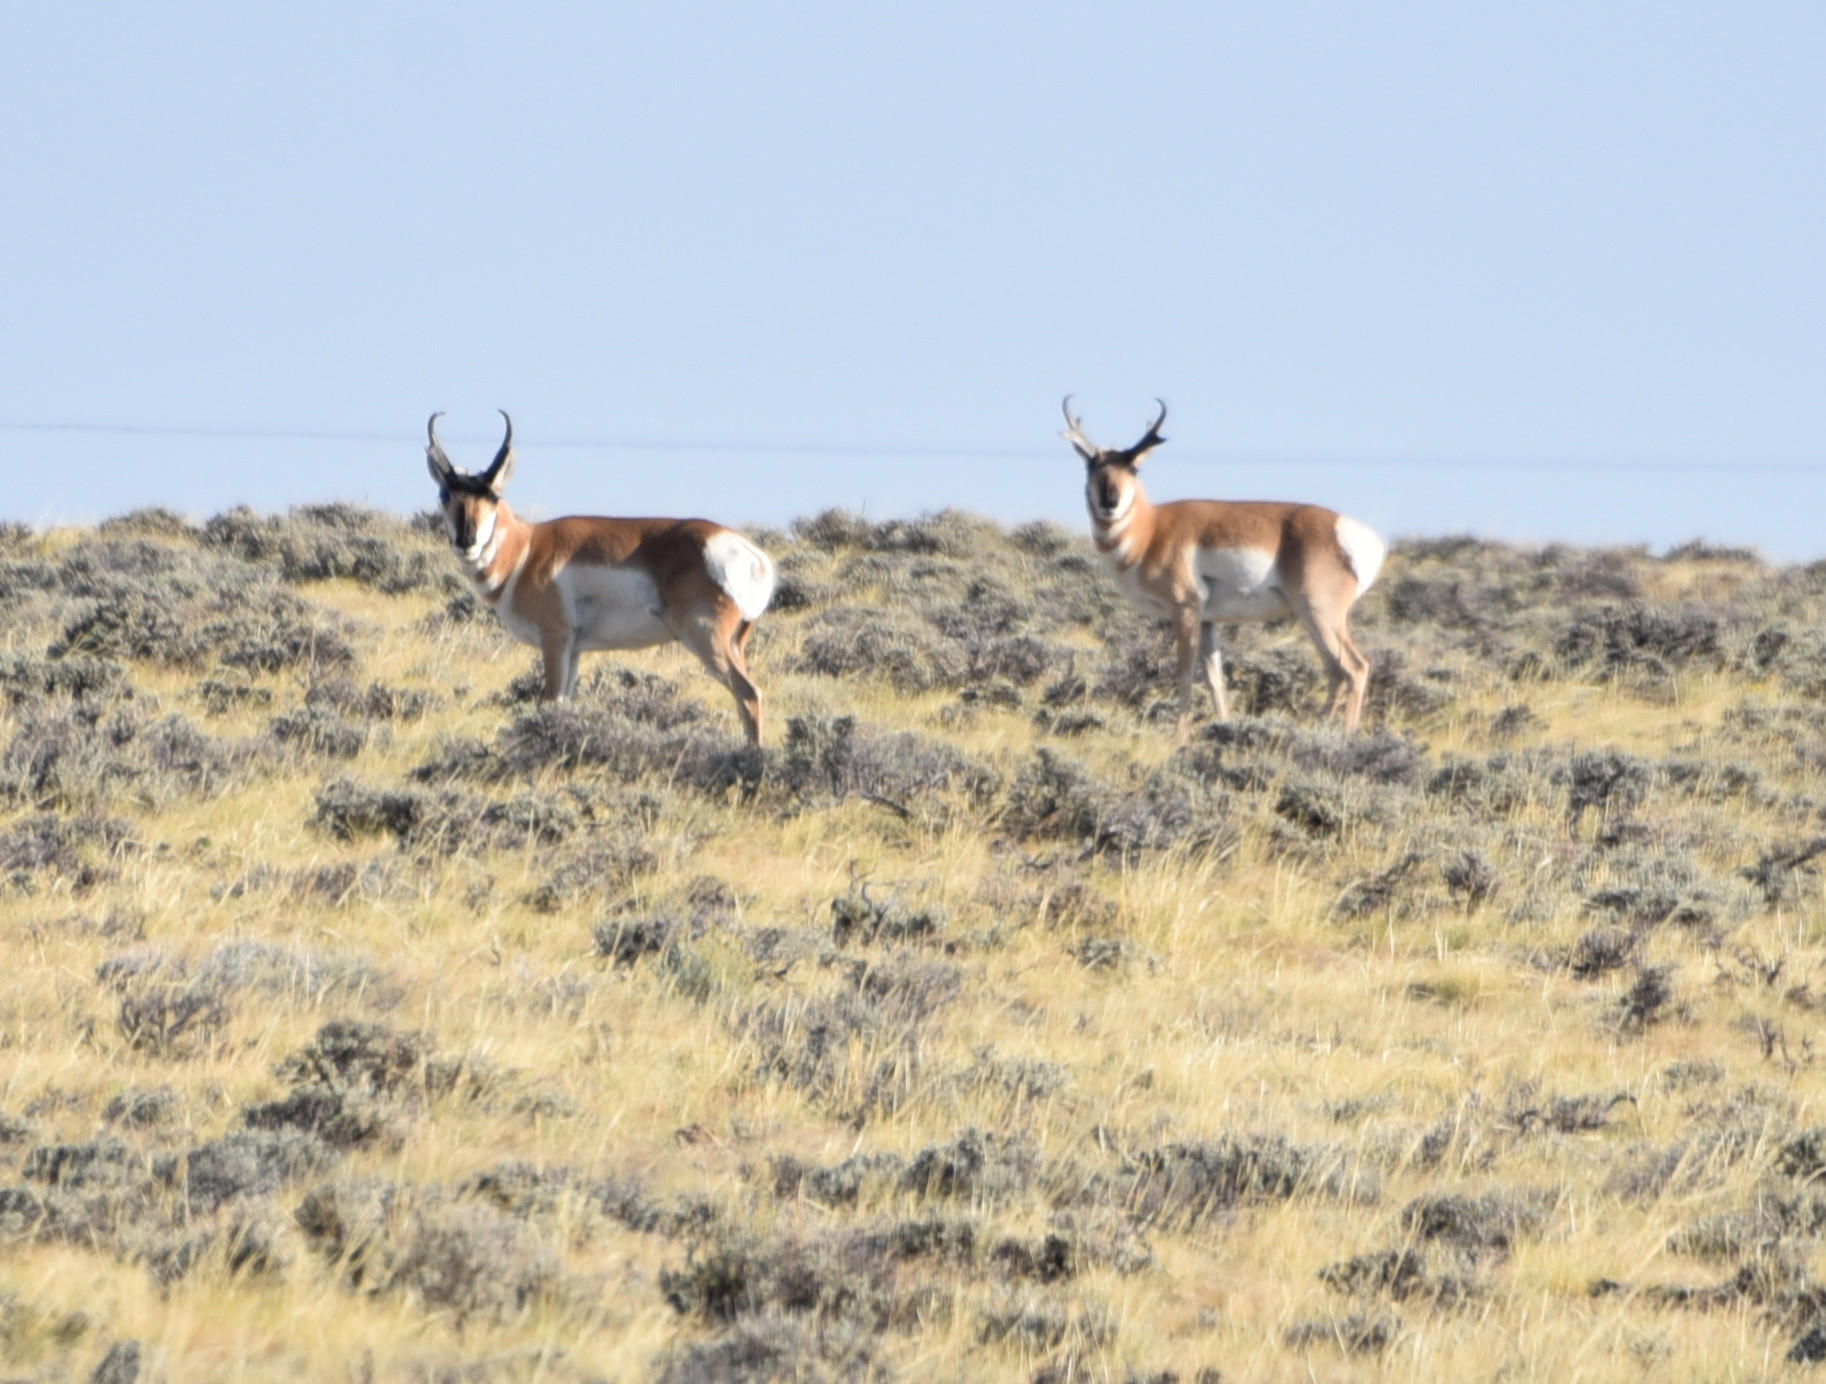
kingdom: Animalia
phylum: Chordata
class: Mammalia
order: Artiodactyla
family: Antilocapridae
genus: Antilocapra
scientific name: Antilocapra americana
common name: Pronghorn
